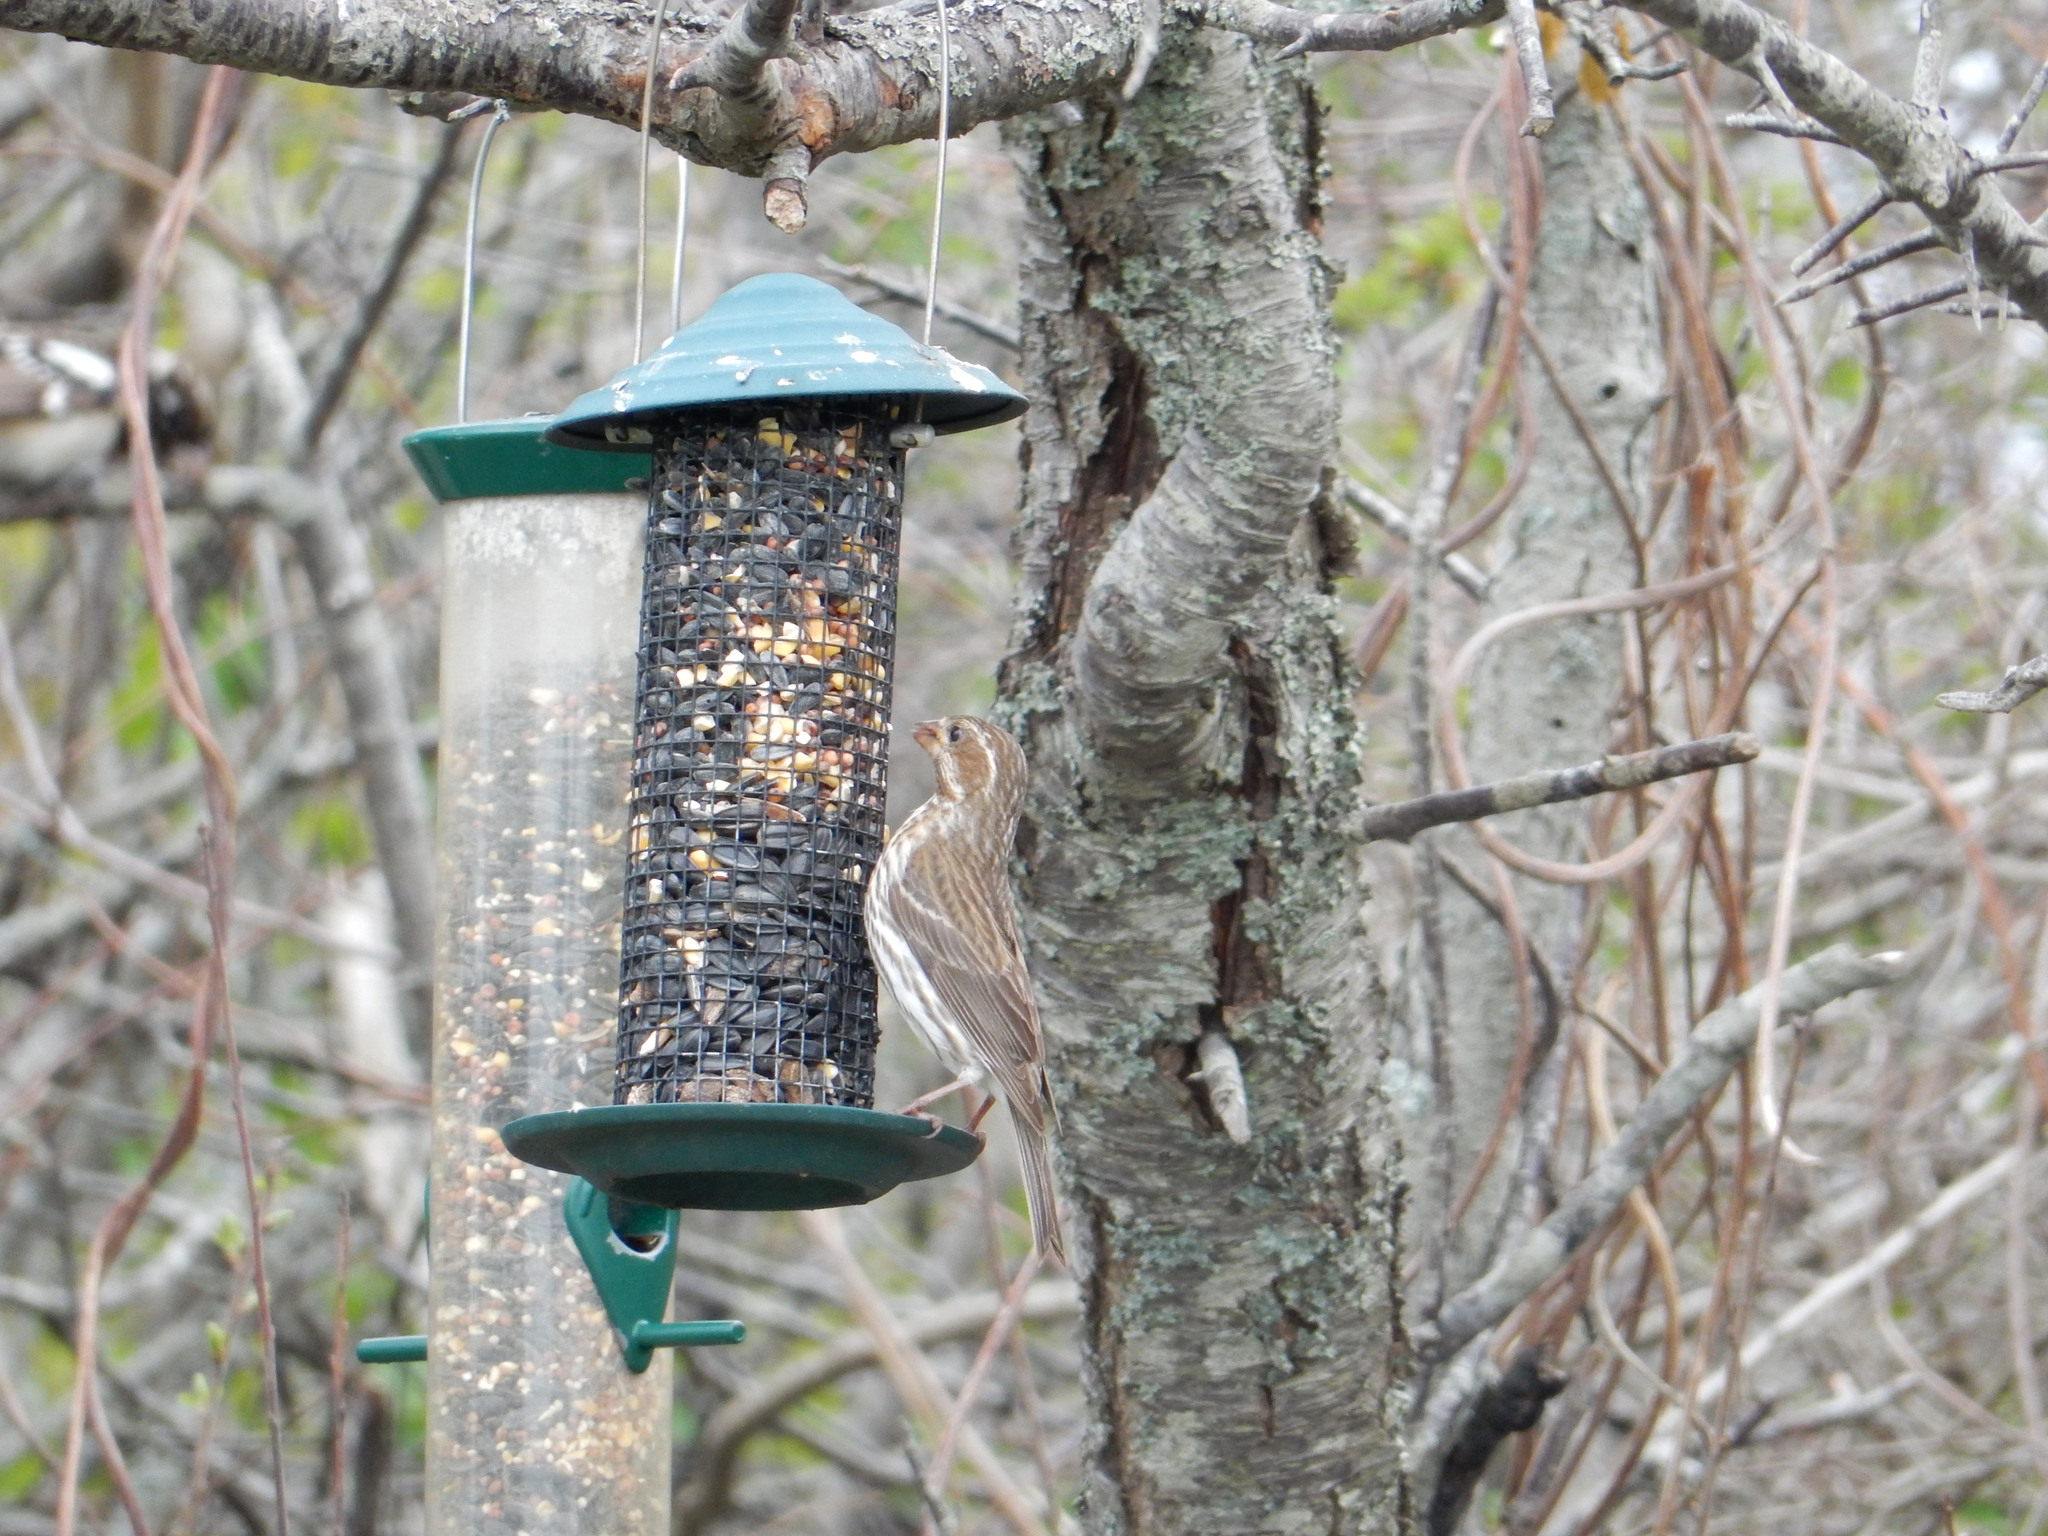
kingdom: Animalia
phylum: Chordata
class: Aves
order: Passeriformes
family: Fringillidae
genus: Haemorhous
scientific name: Haemorhous purpureus
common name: Purple finch
